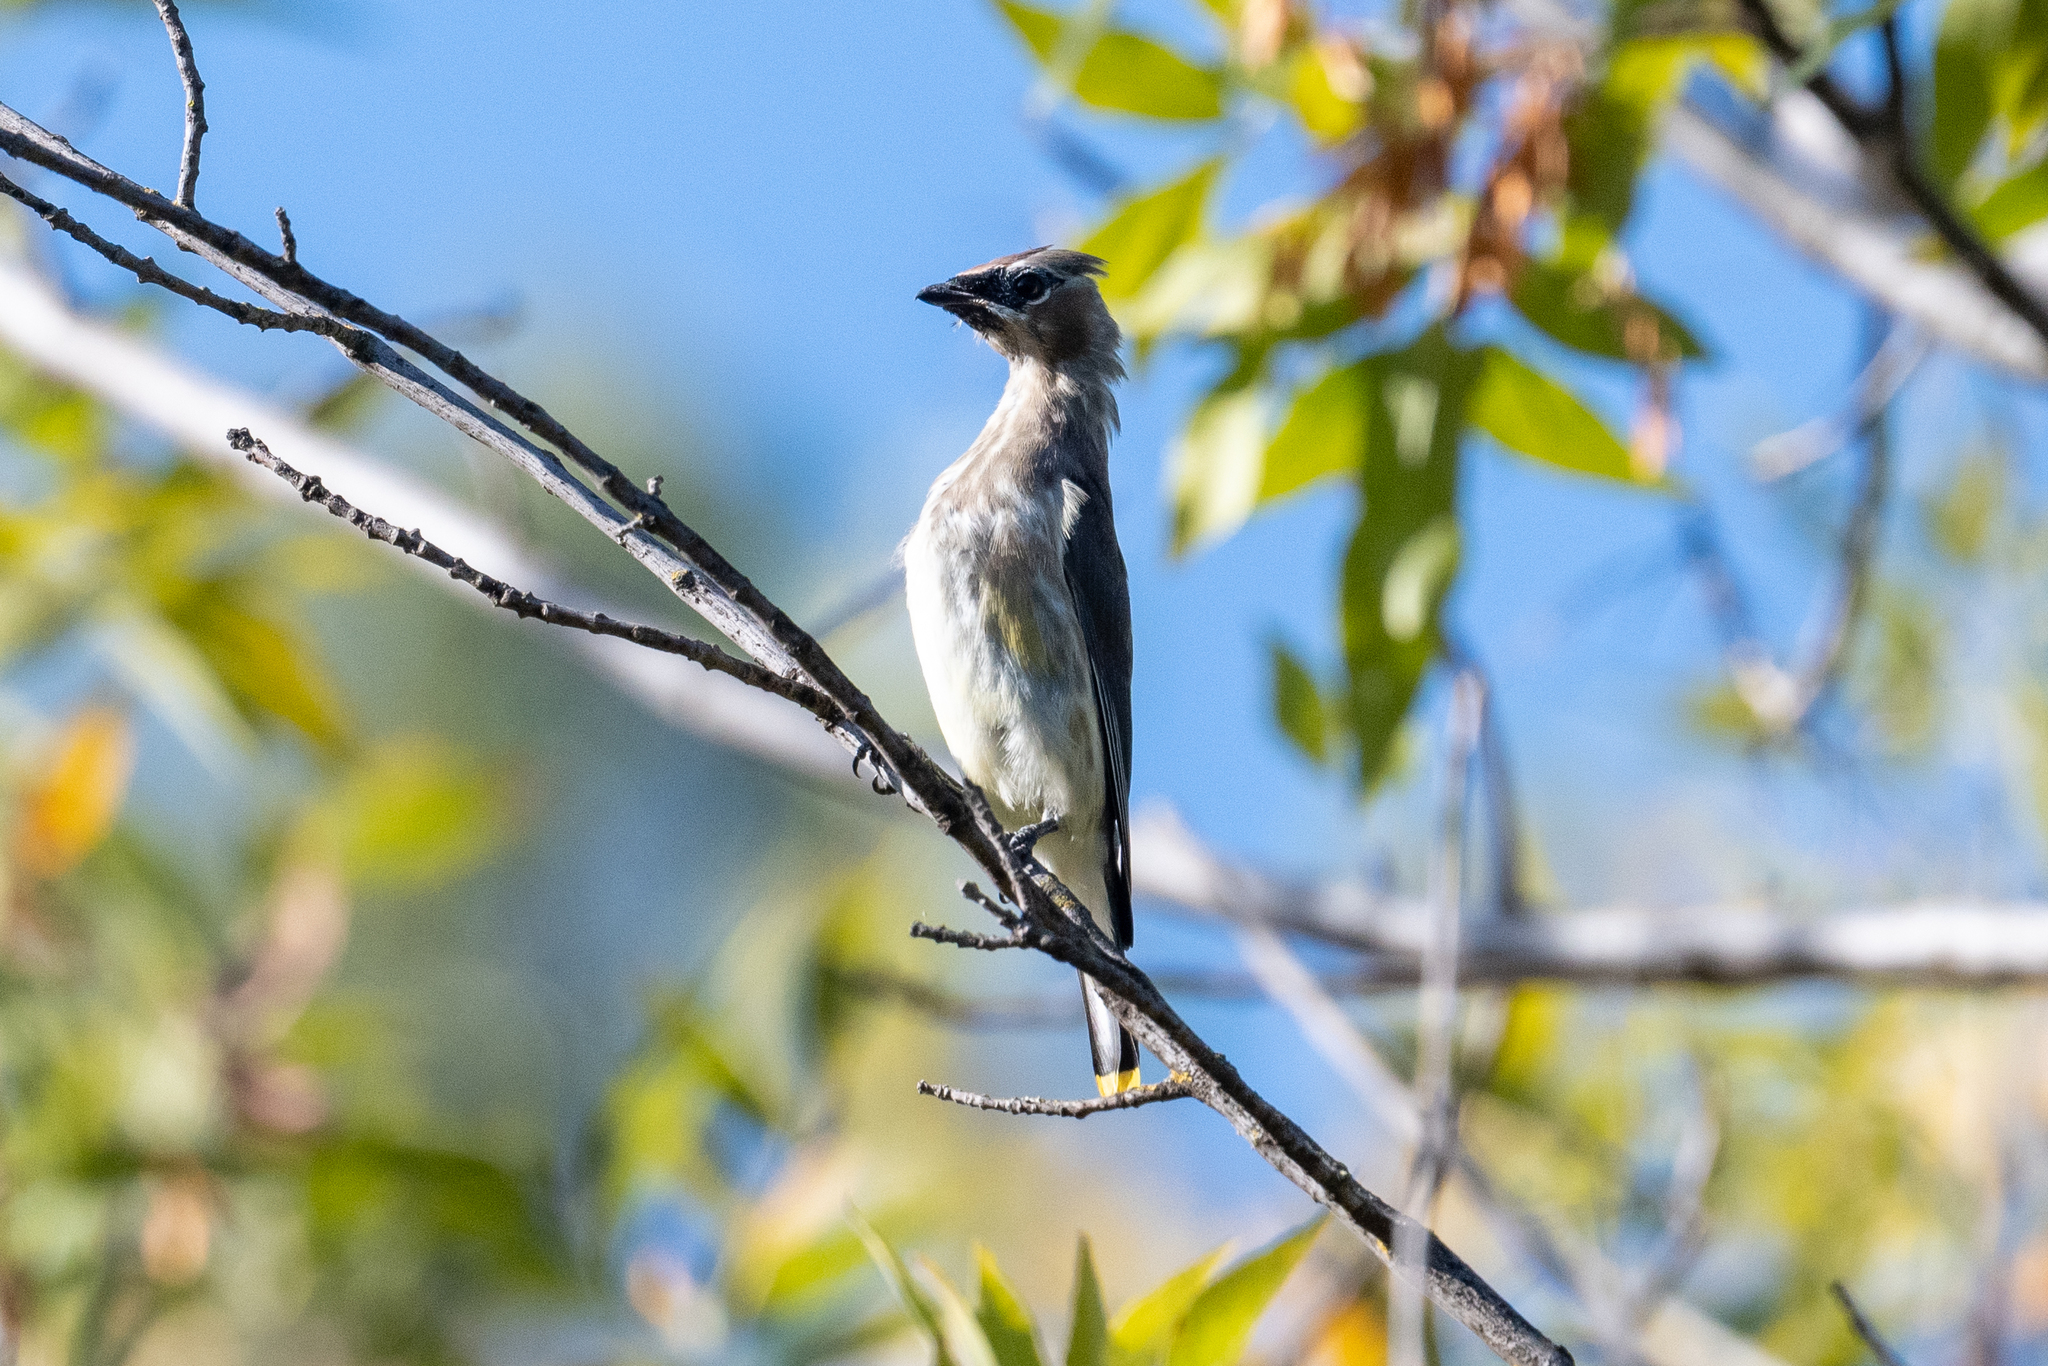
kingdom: Animalia
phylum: Chordata
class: Aves
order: Passeriformes
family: Bombycillidae
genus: Bombycilla
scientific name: Bombycilla cedrorum
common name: Cedar waxwing
